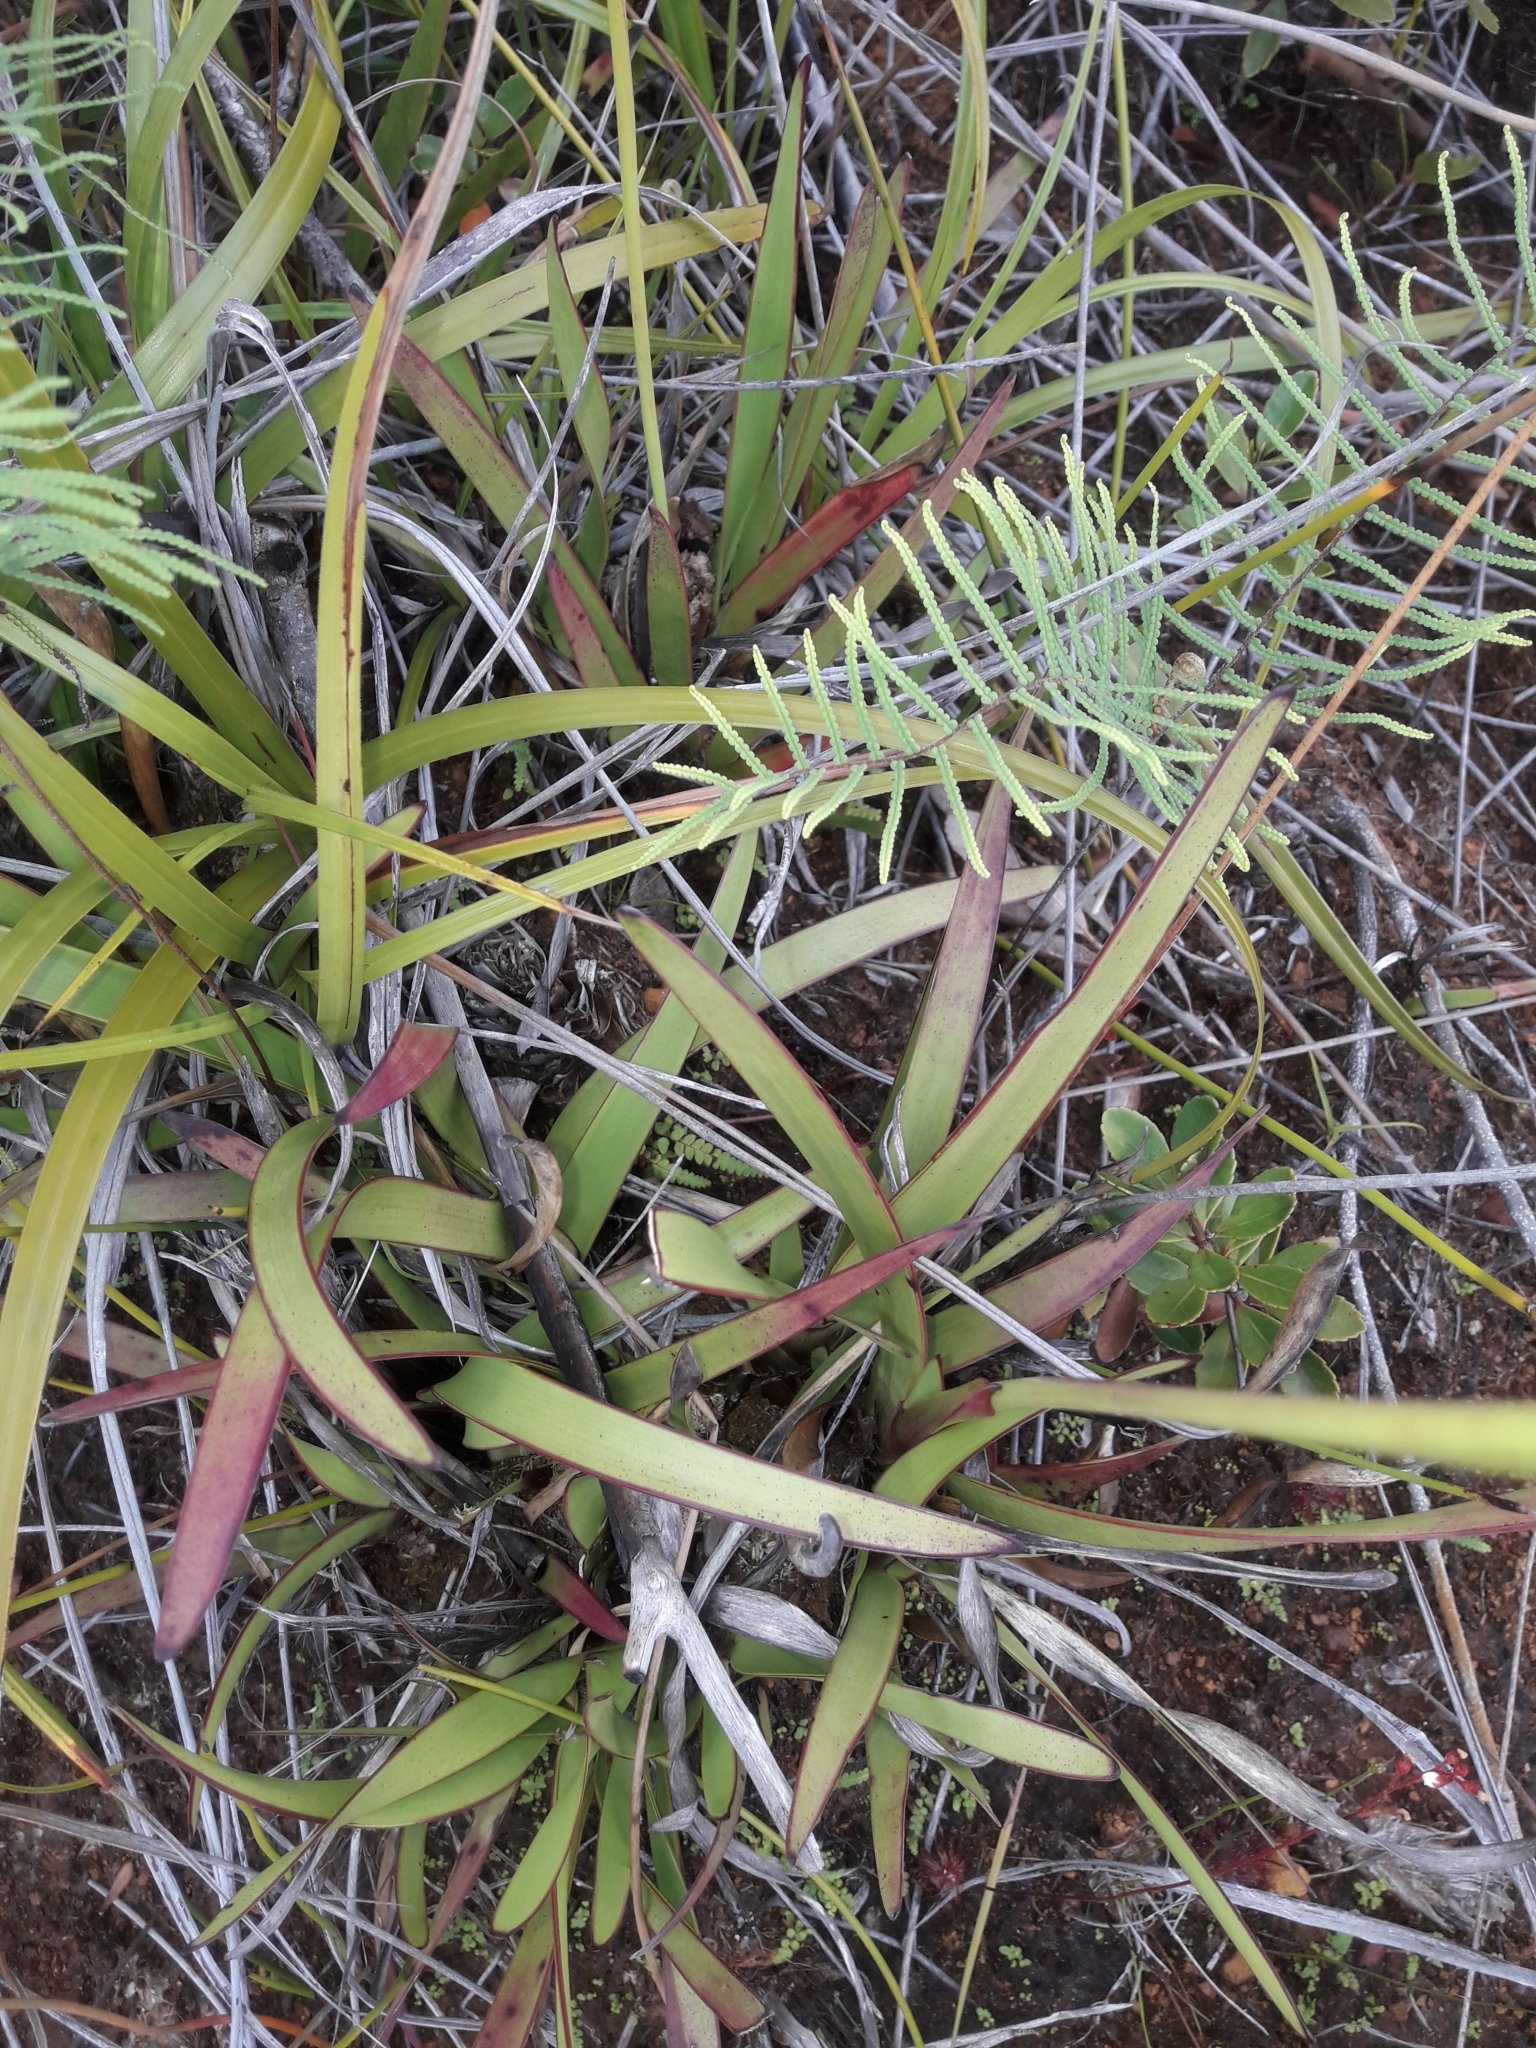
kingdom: Plantae
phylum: Tracheophyta
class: Liliopsida
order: Poales
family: Xyridaceae
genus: Xyris
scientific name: Xyris neocaledonica
